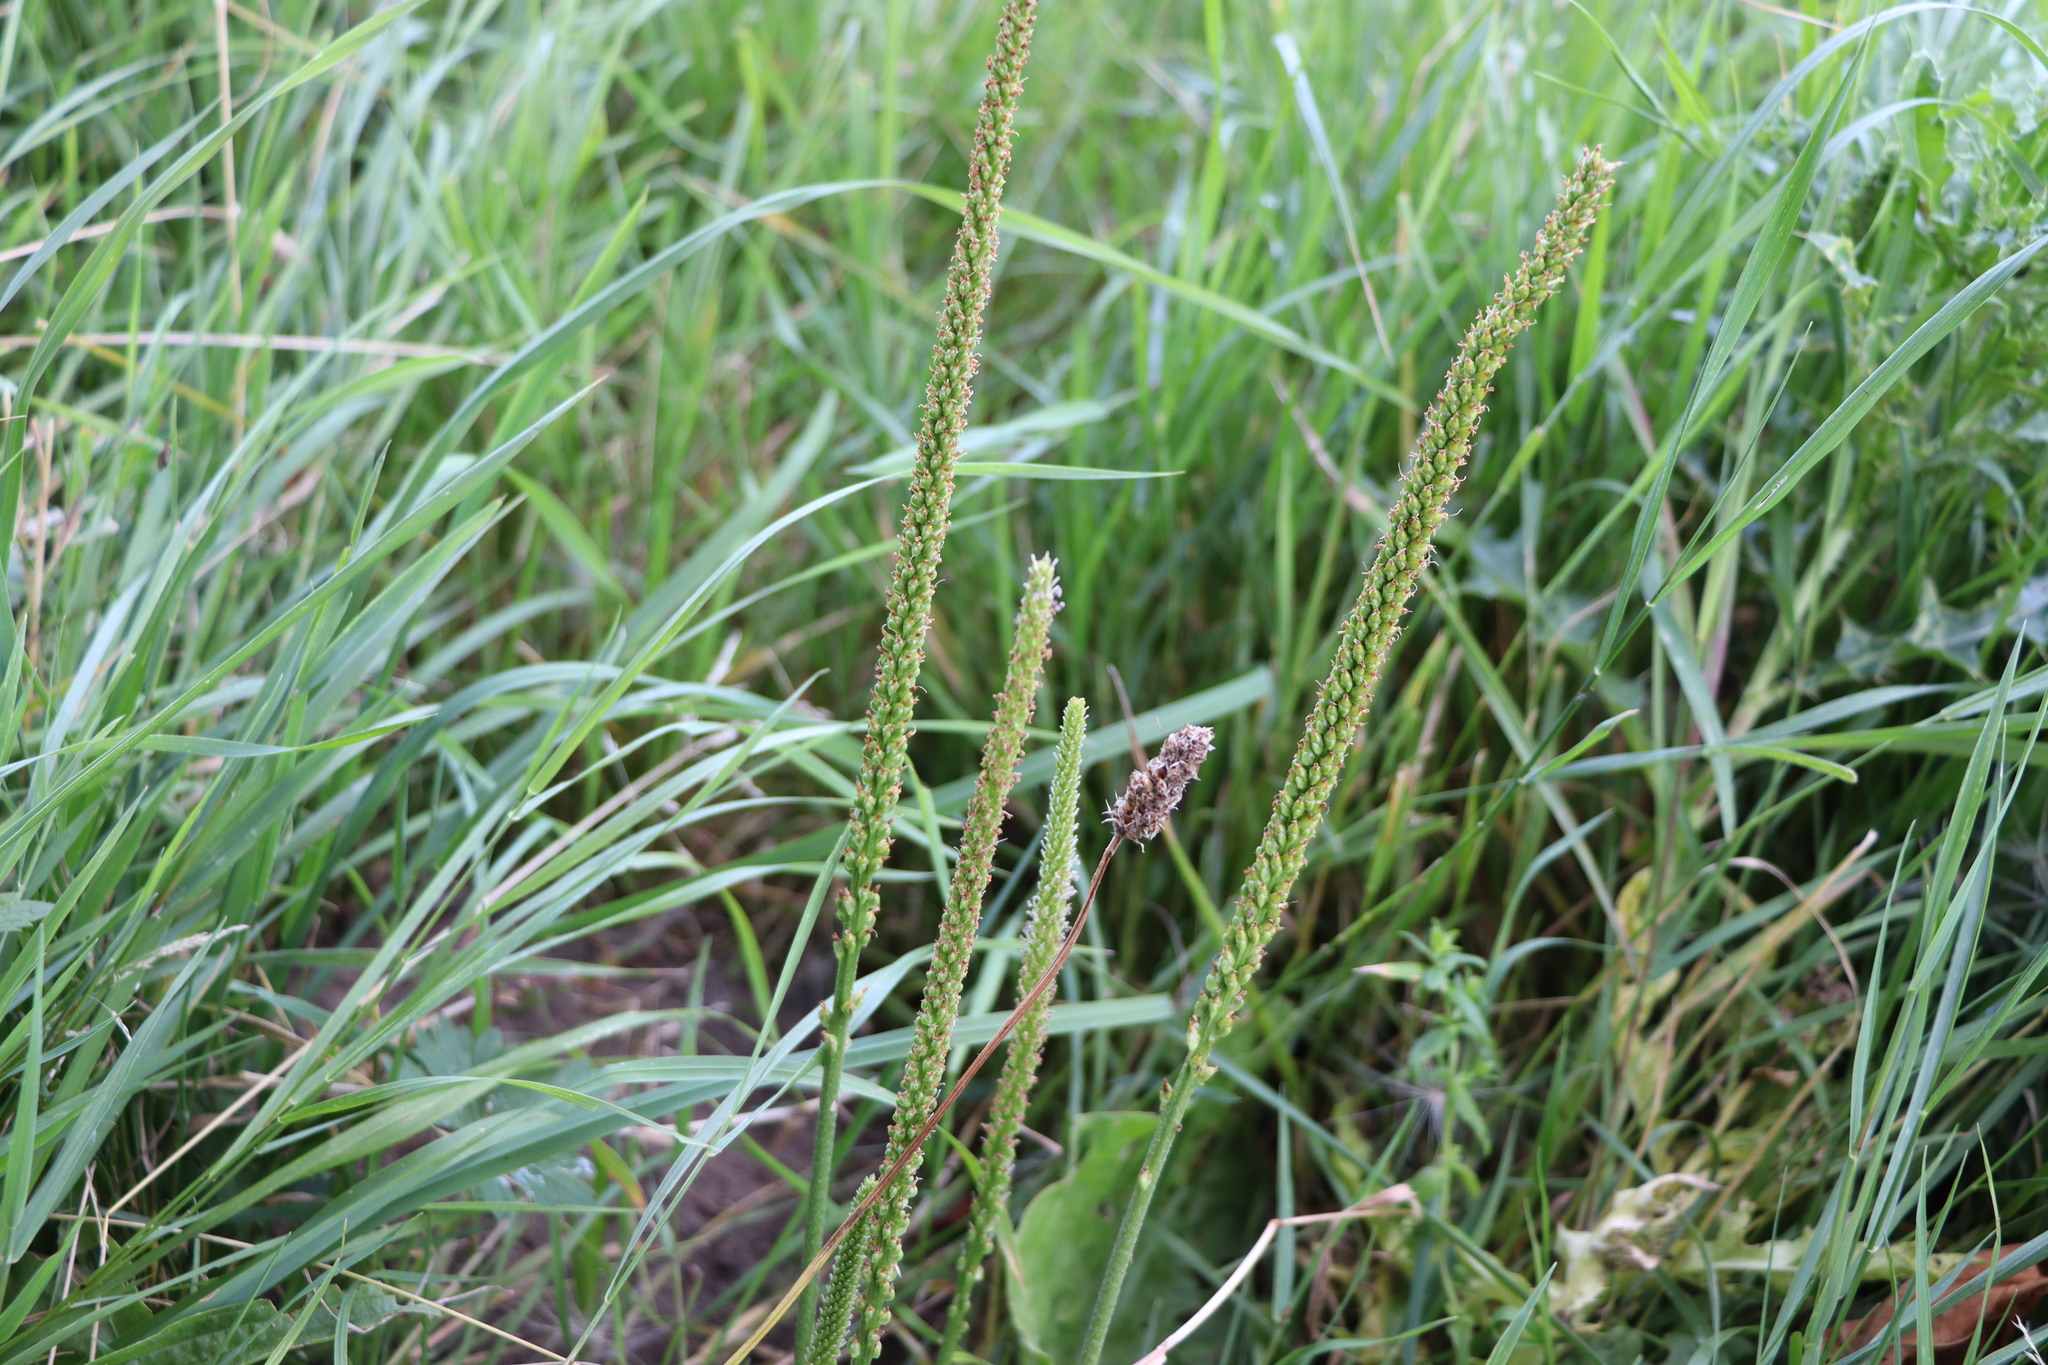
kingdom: Plantae
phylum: Tracheophyta
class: Magnoliopsida
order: Lamiales
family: Plantaginaceae
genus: Plantago
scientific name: Plantago major
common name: Common plantain
